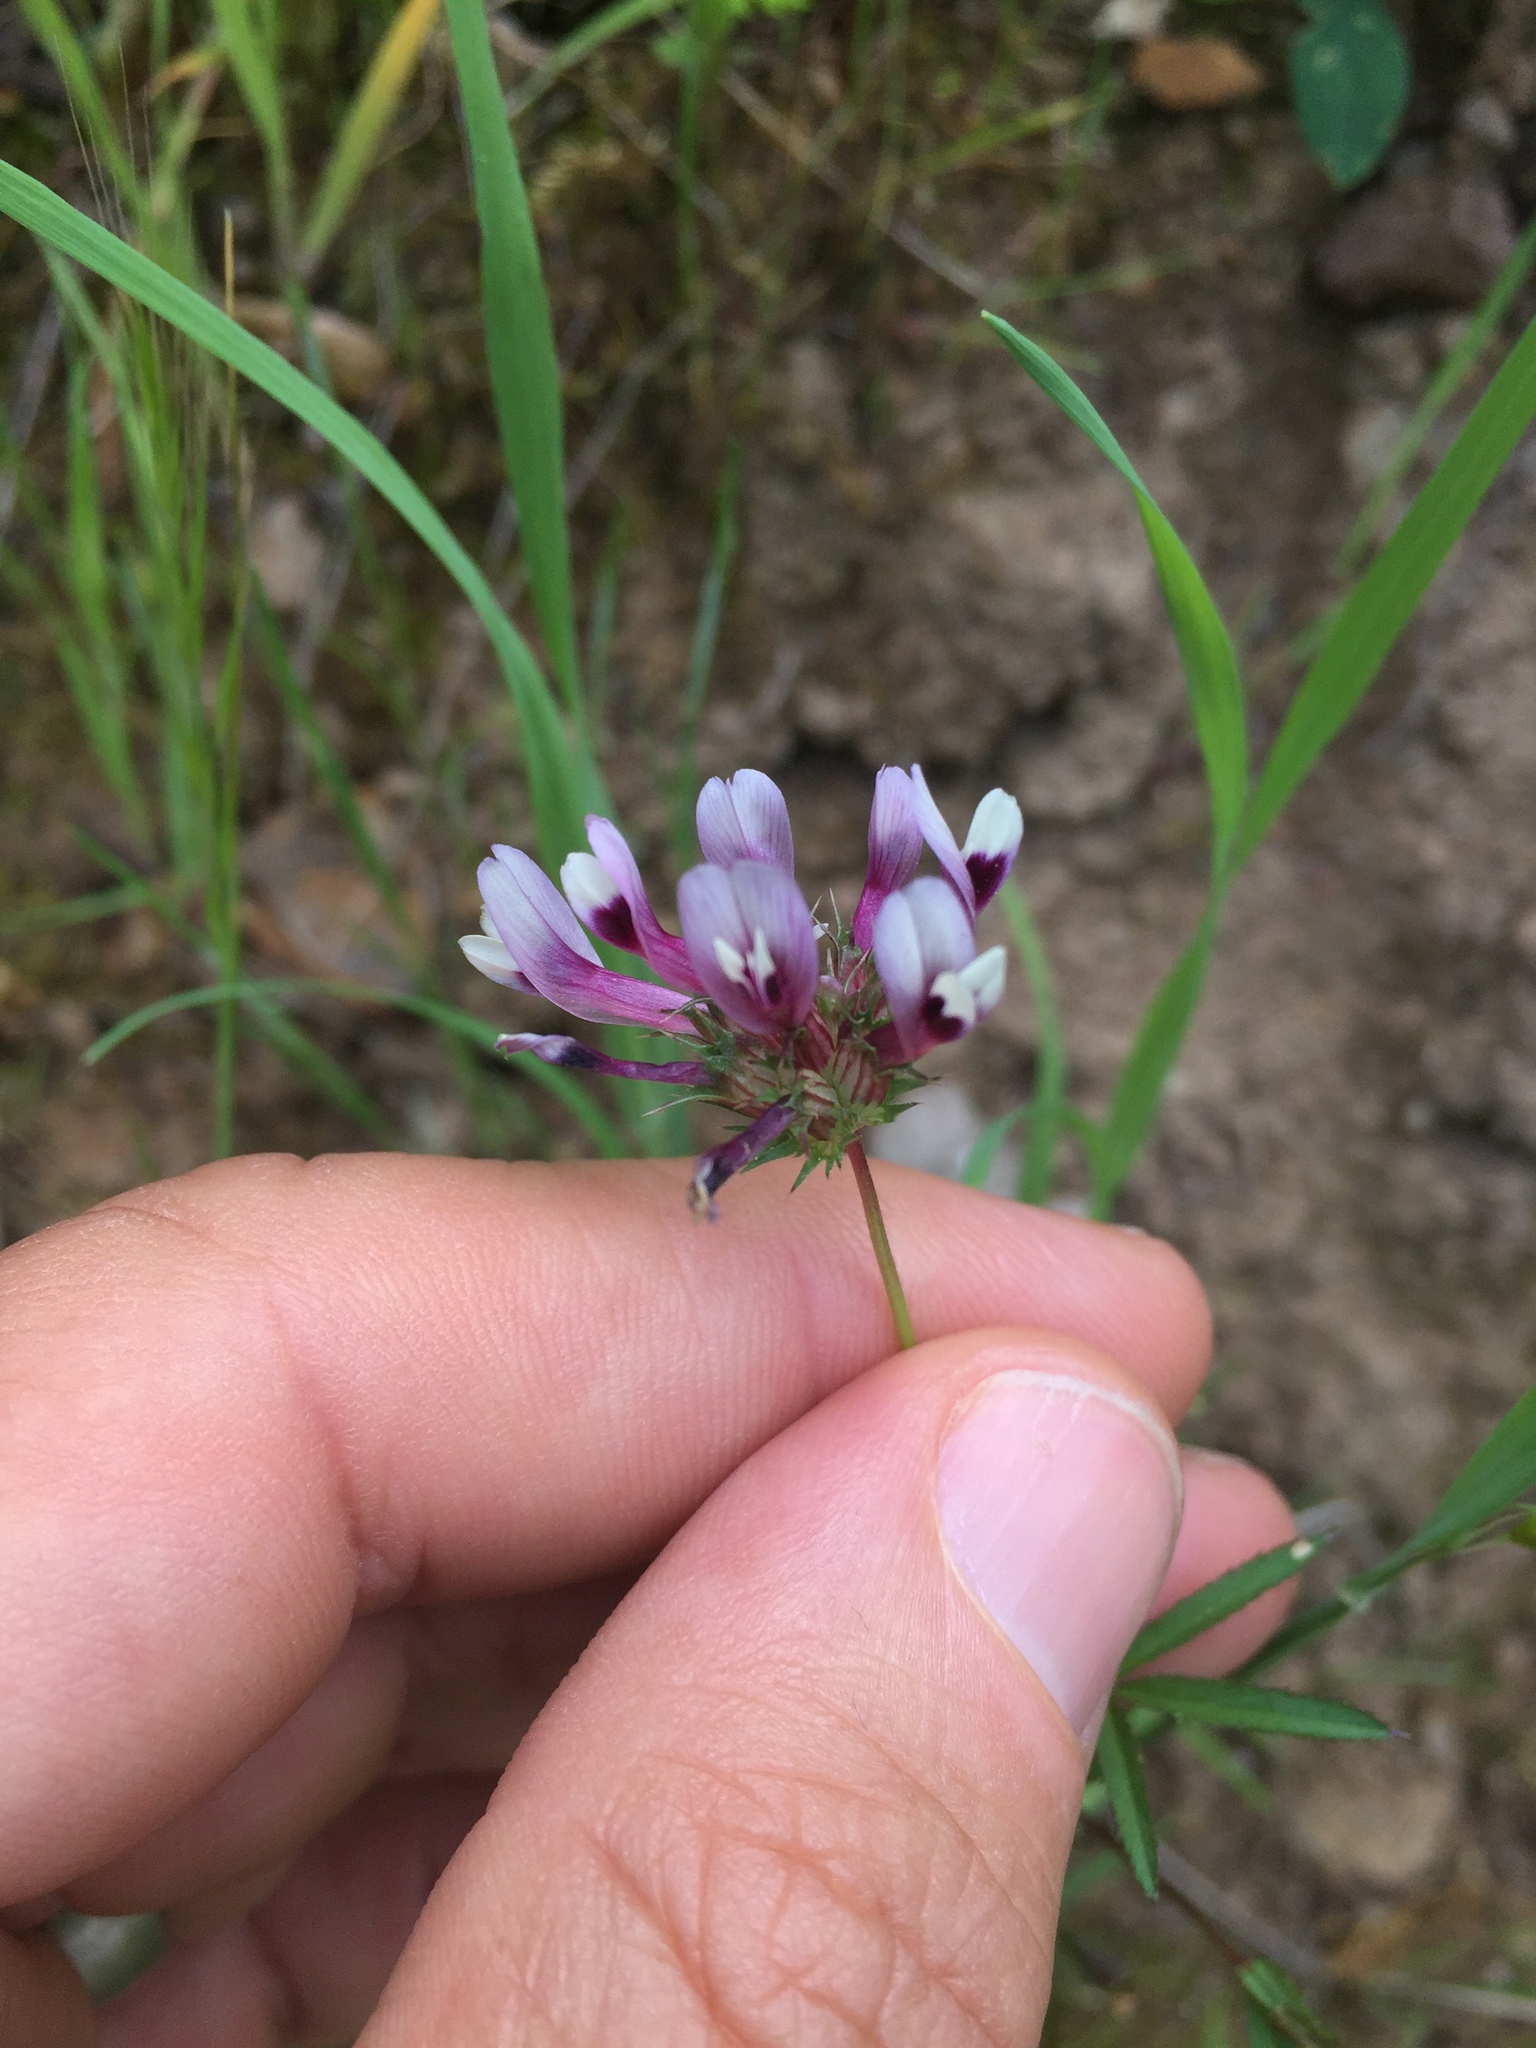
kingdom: Plantae
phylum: Tracheophyta
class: Magnoliopsida
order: Fabales
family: Fabaceae
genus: Trifolium
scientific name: Trifolium willdenovii
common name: Tomcat clover
